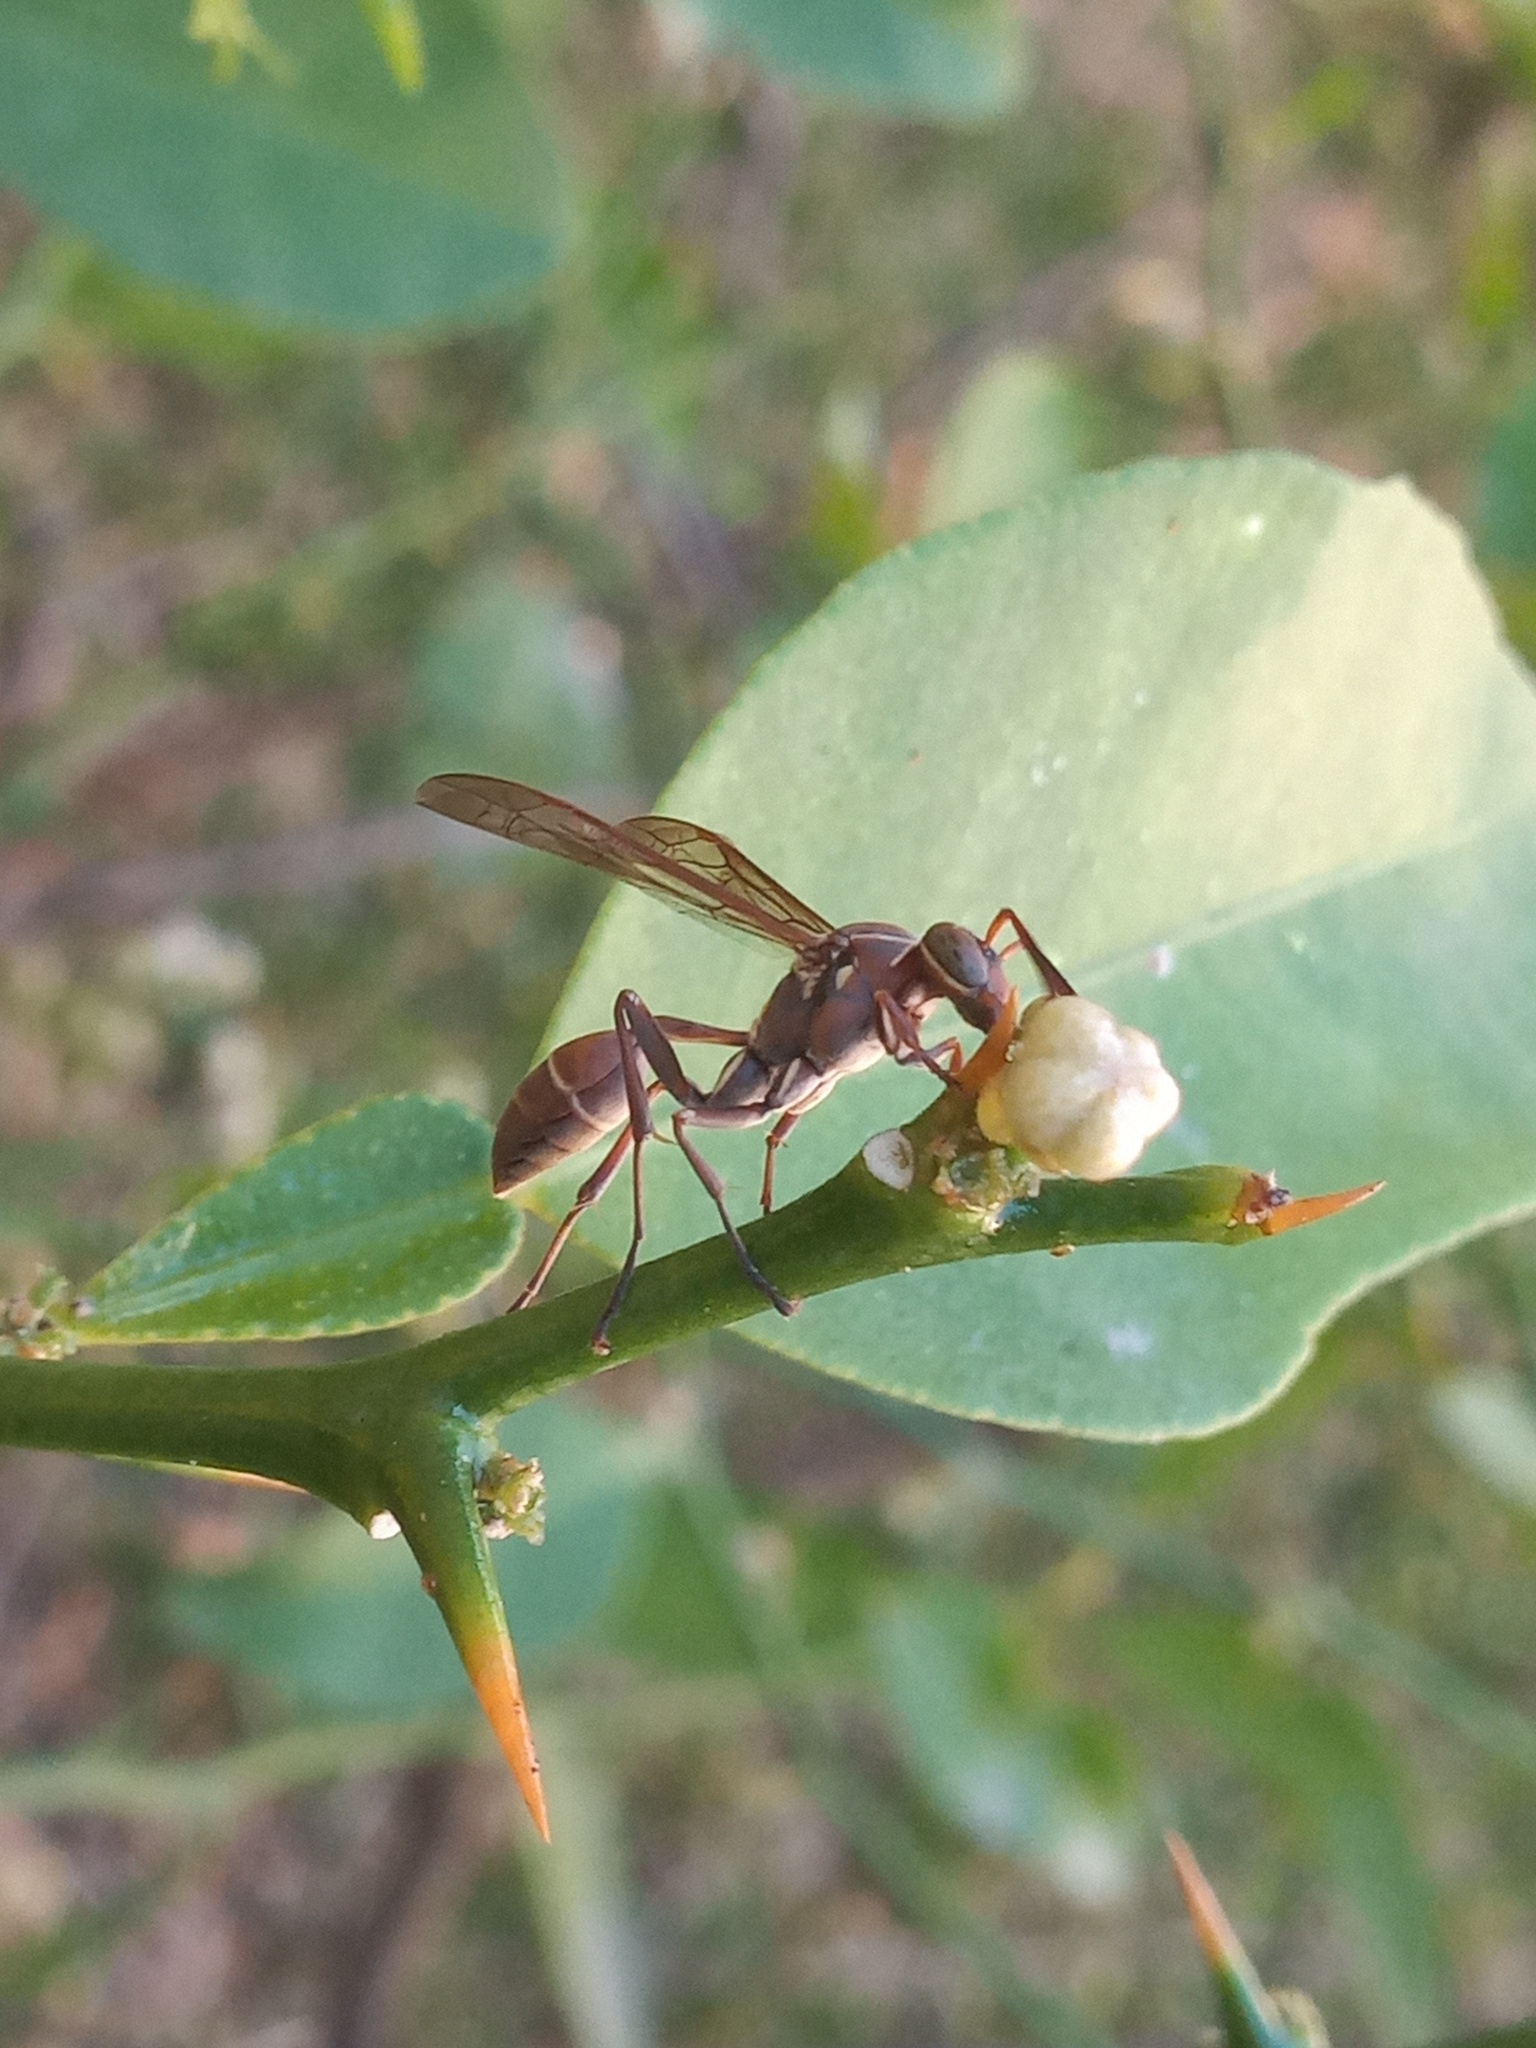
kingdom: Animalia
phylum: Arthropoda
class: Insecta
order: Hymenoptera
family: Vespidae
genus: Mischocyttarus
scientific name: Mischocyttarus mexicanus
